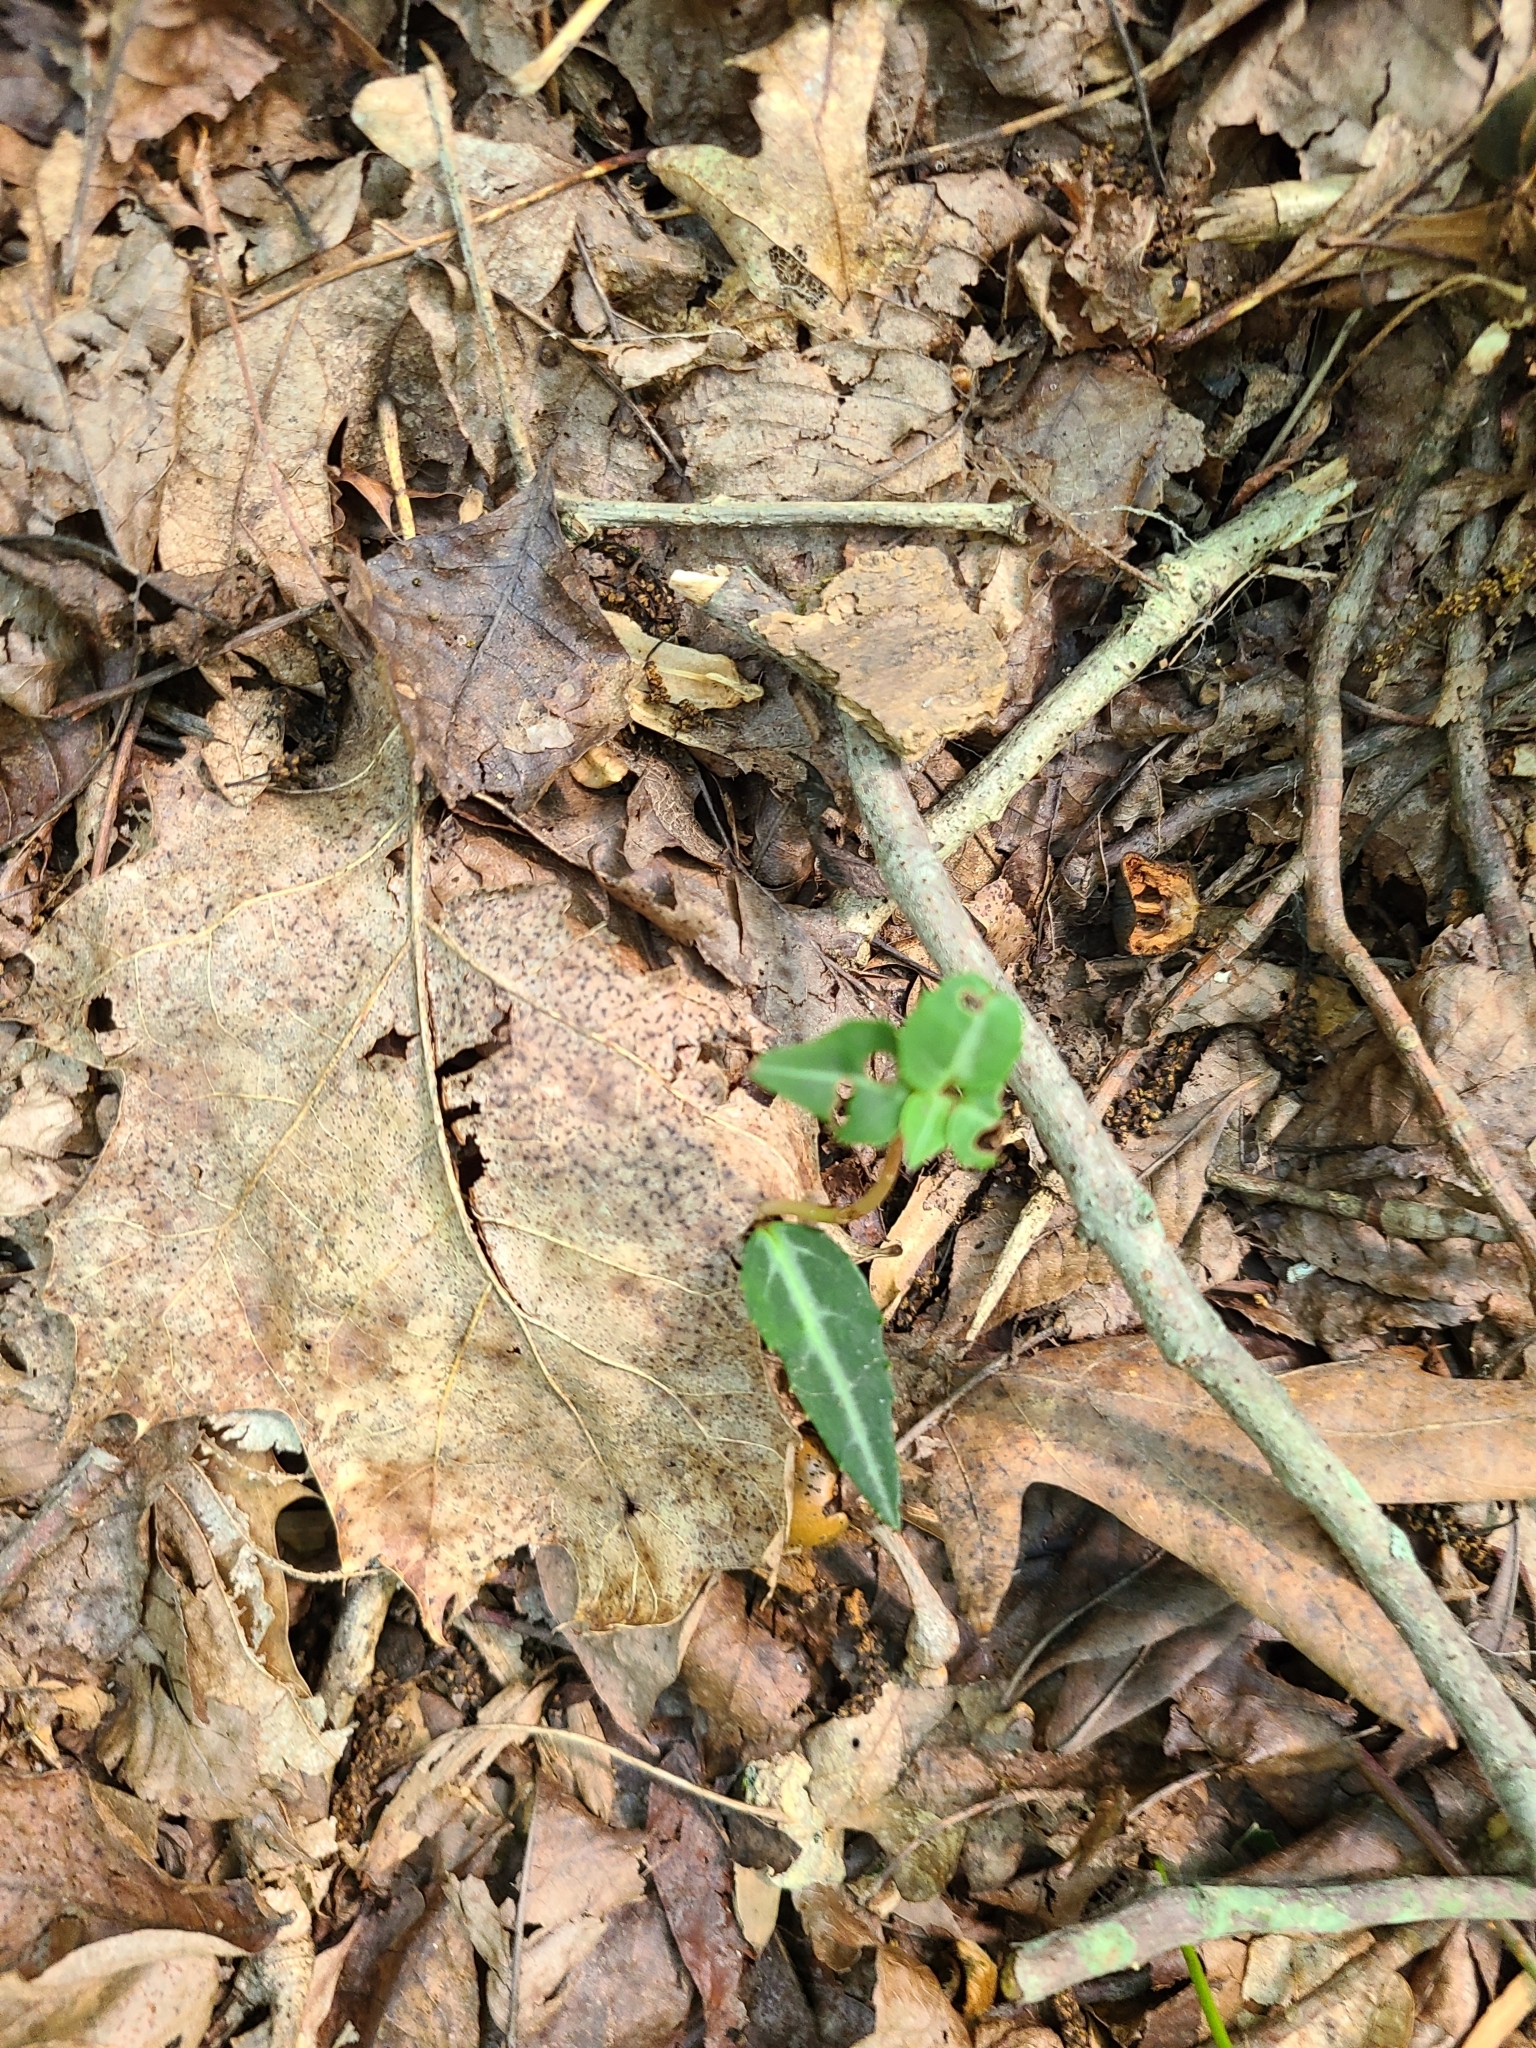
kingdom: Plantae
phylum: Tracheophyta
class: Magnoliopsida
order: Ericales
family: Ericaceae
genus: Chimaphila
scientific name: Chimaphila maculata
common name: Spotted pipsissewa
